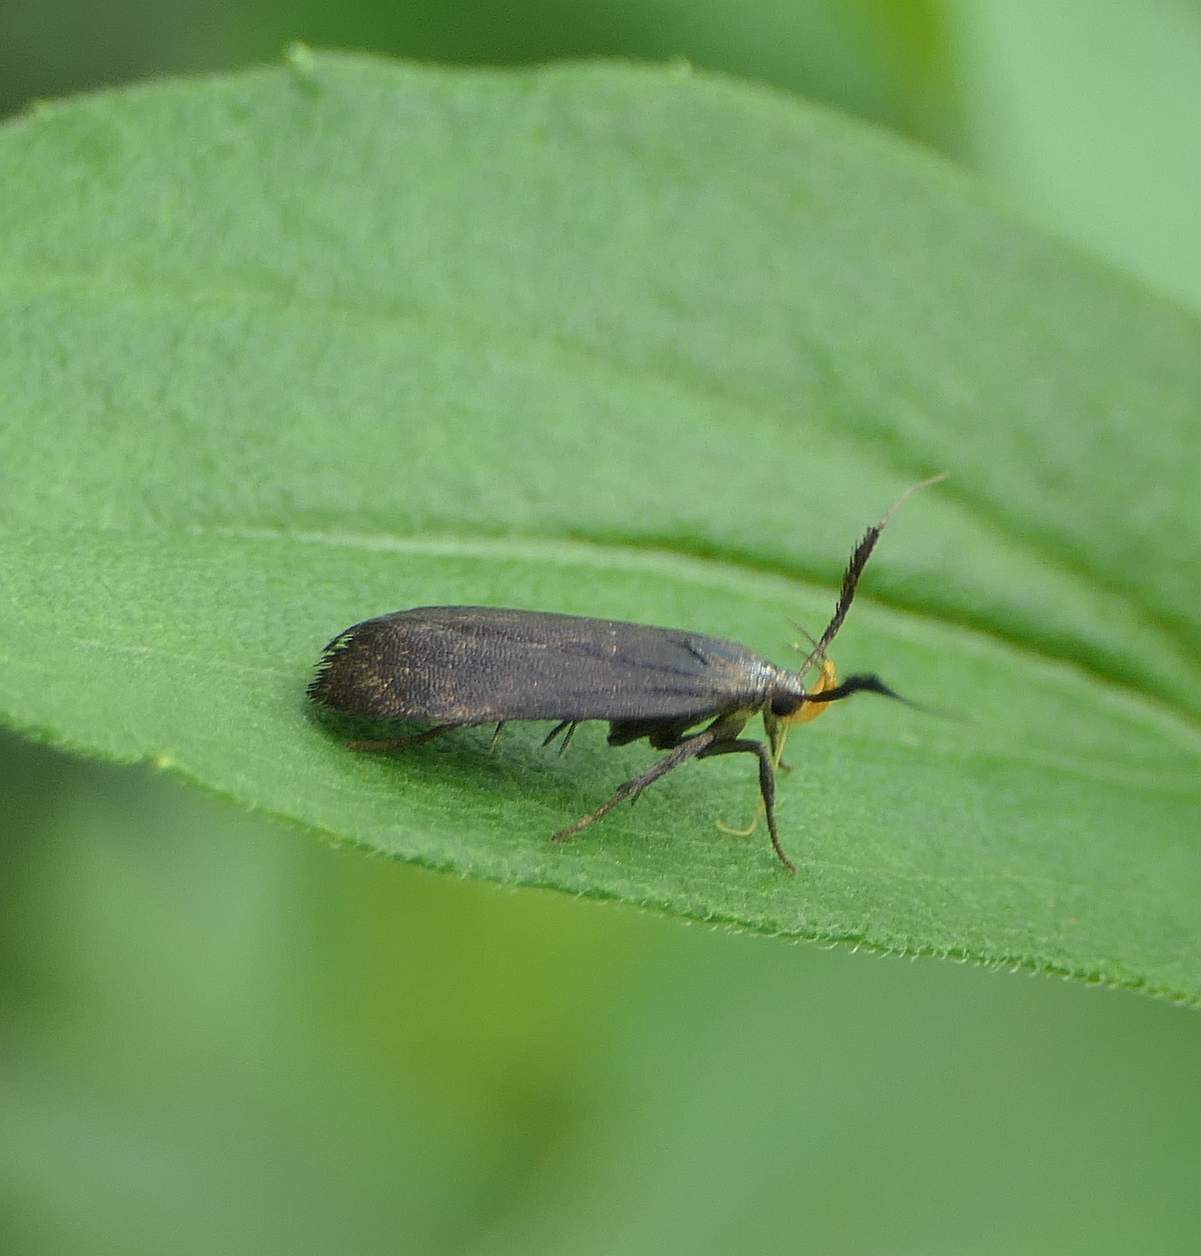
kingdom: Animalia
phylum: Arthropoda
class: Insecta
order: Lepidoptera
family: Gelechiidae
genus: Dichomeris
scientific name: Dichomeris nonstrigella
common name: Little devil moth
